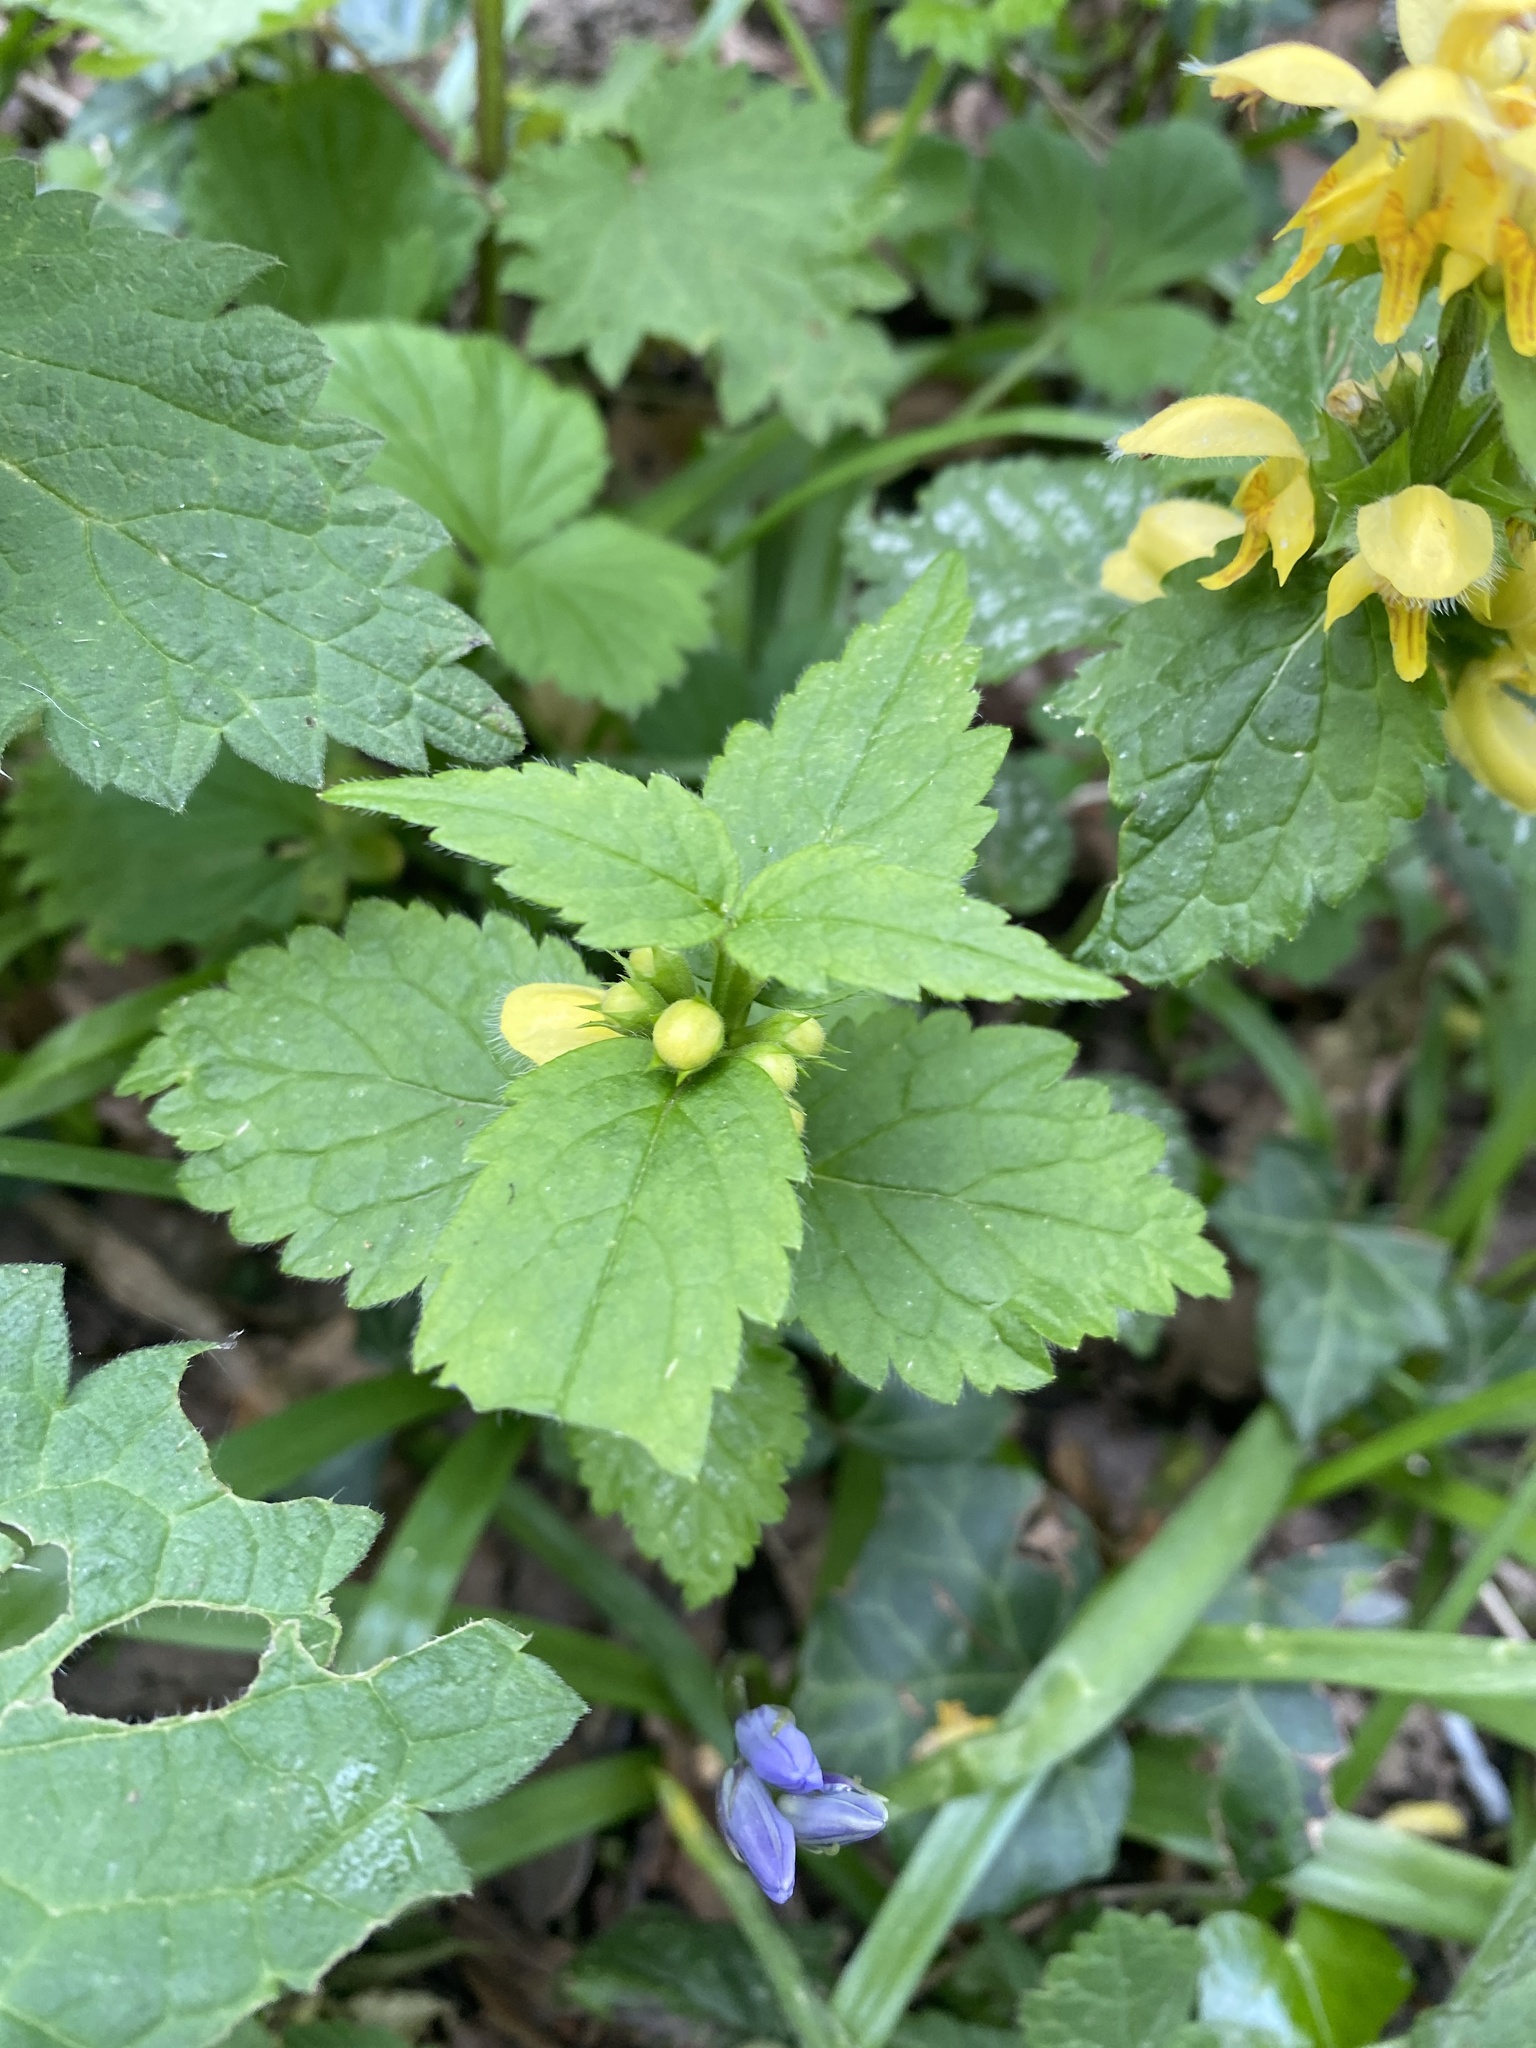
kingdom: Plantae
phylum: Tracheophyta
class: Magnoliopsida
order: Lamiales
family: Lamiaceae
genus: Lamium
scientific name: Lamium galeobdolon
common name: Yellow archangel
